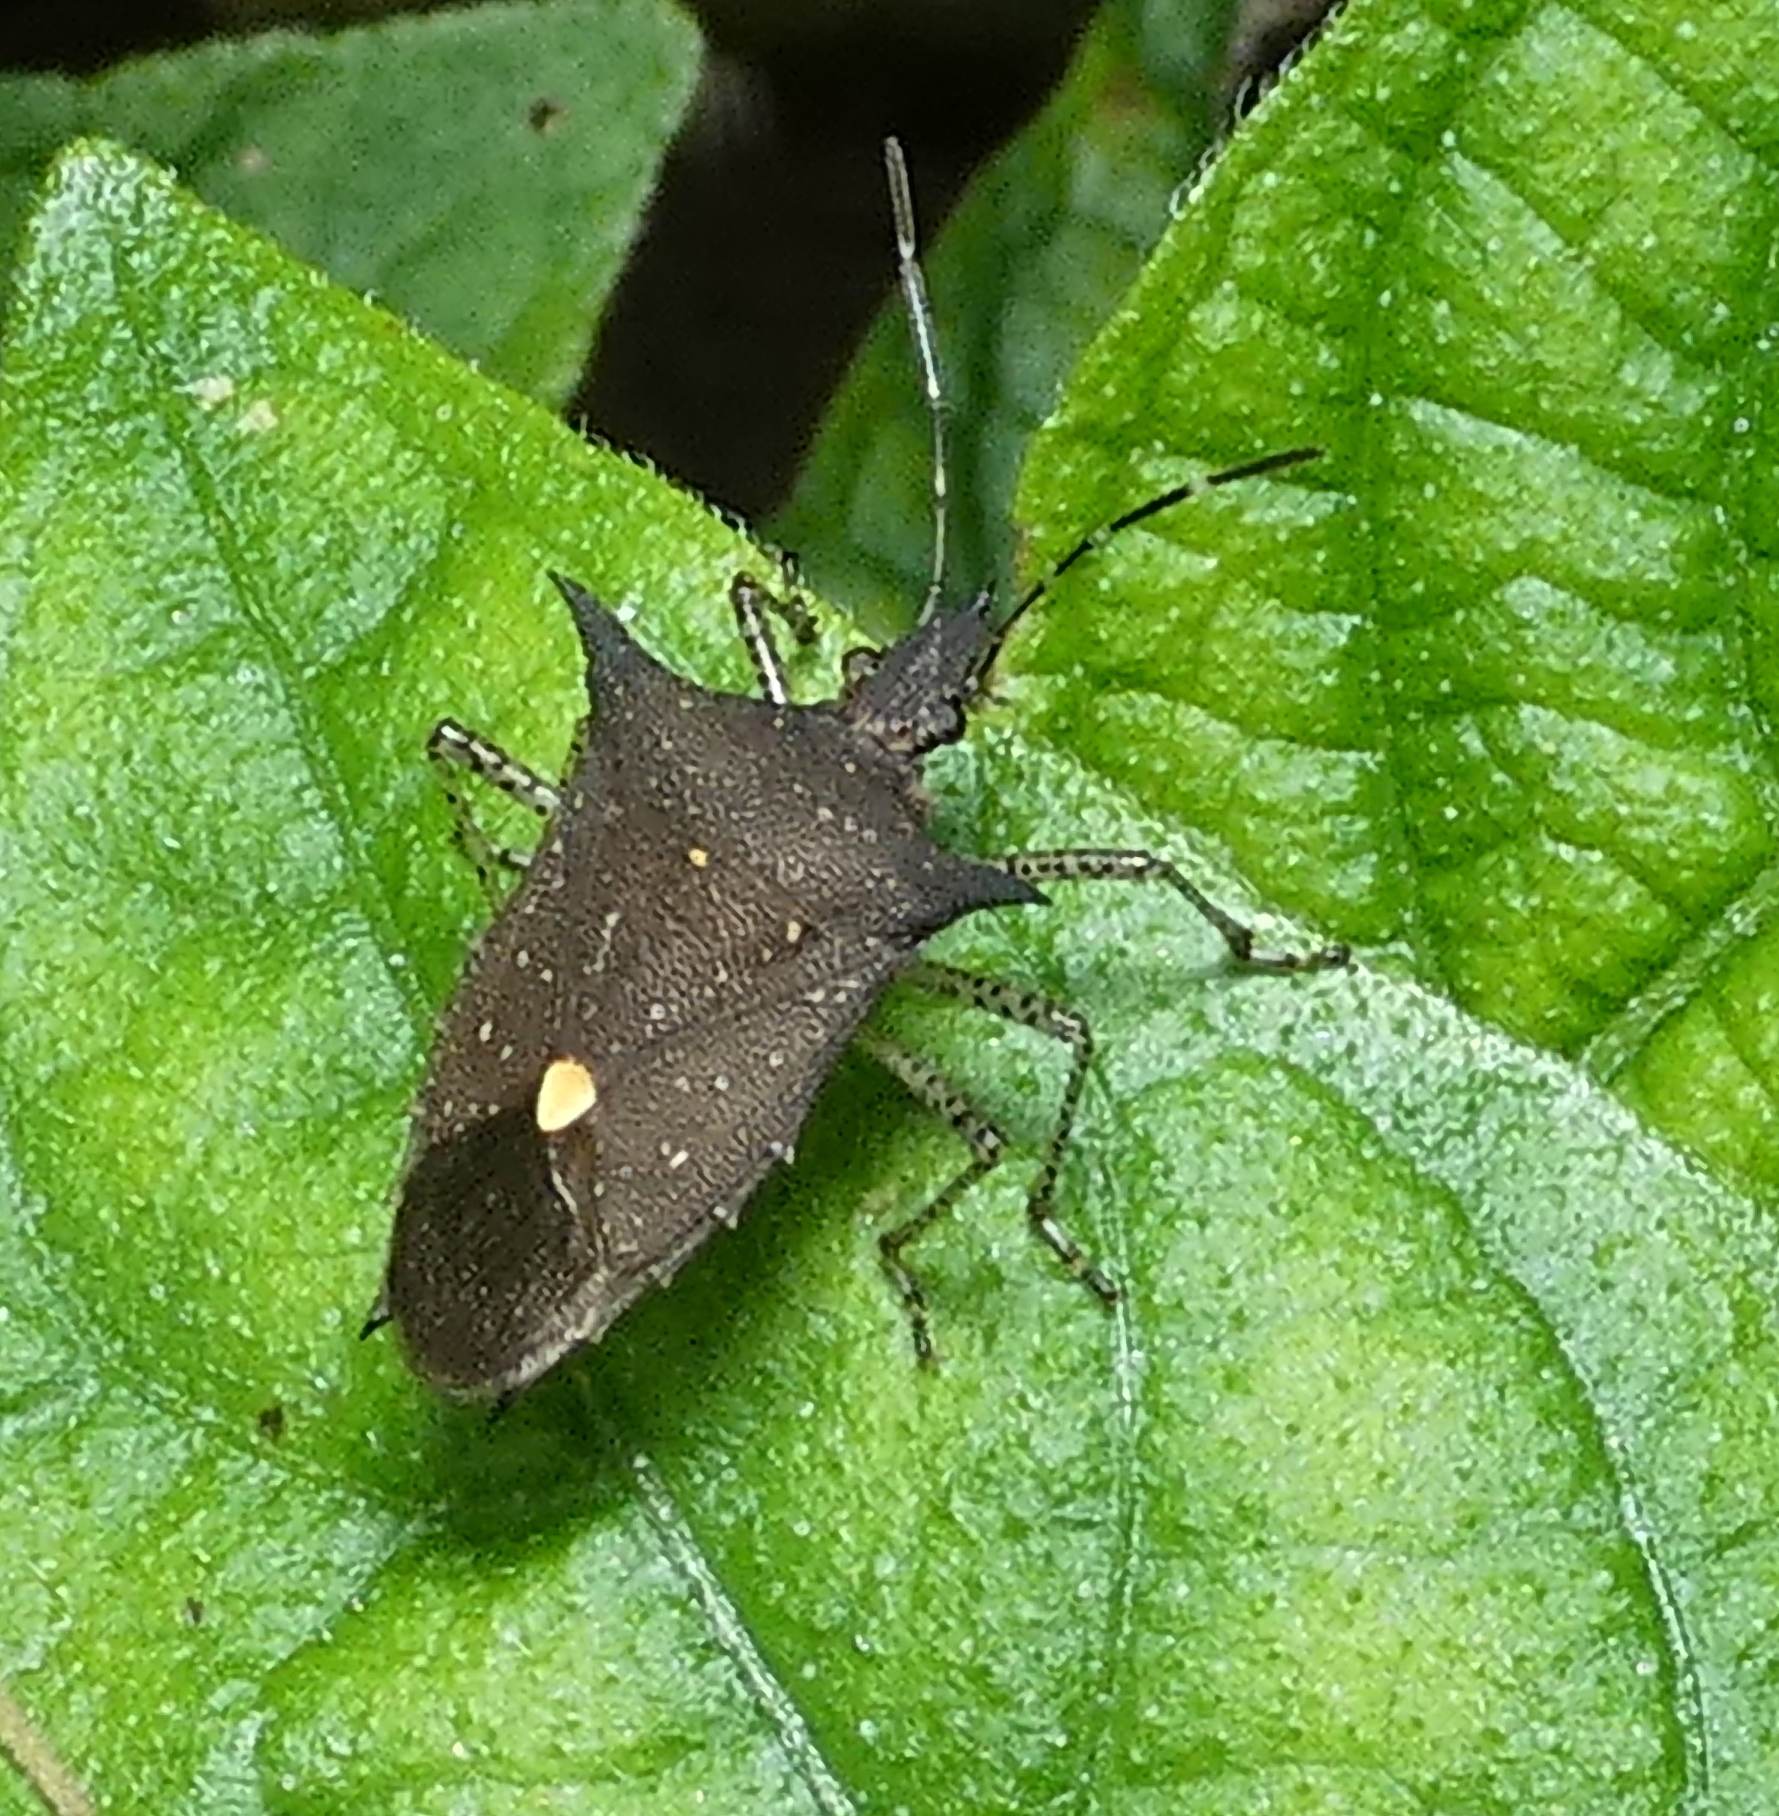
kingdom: Animalia
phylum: Arthropoda
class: Insecta
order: Hemiptera
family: Pentatomidae
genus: Proxys
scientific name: Proxys albopunctulatus
